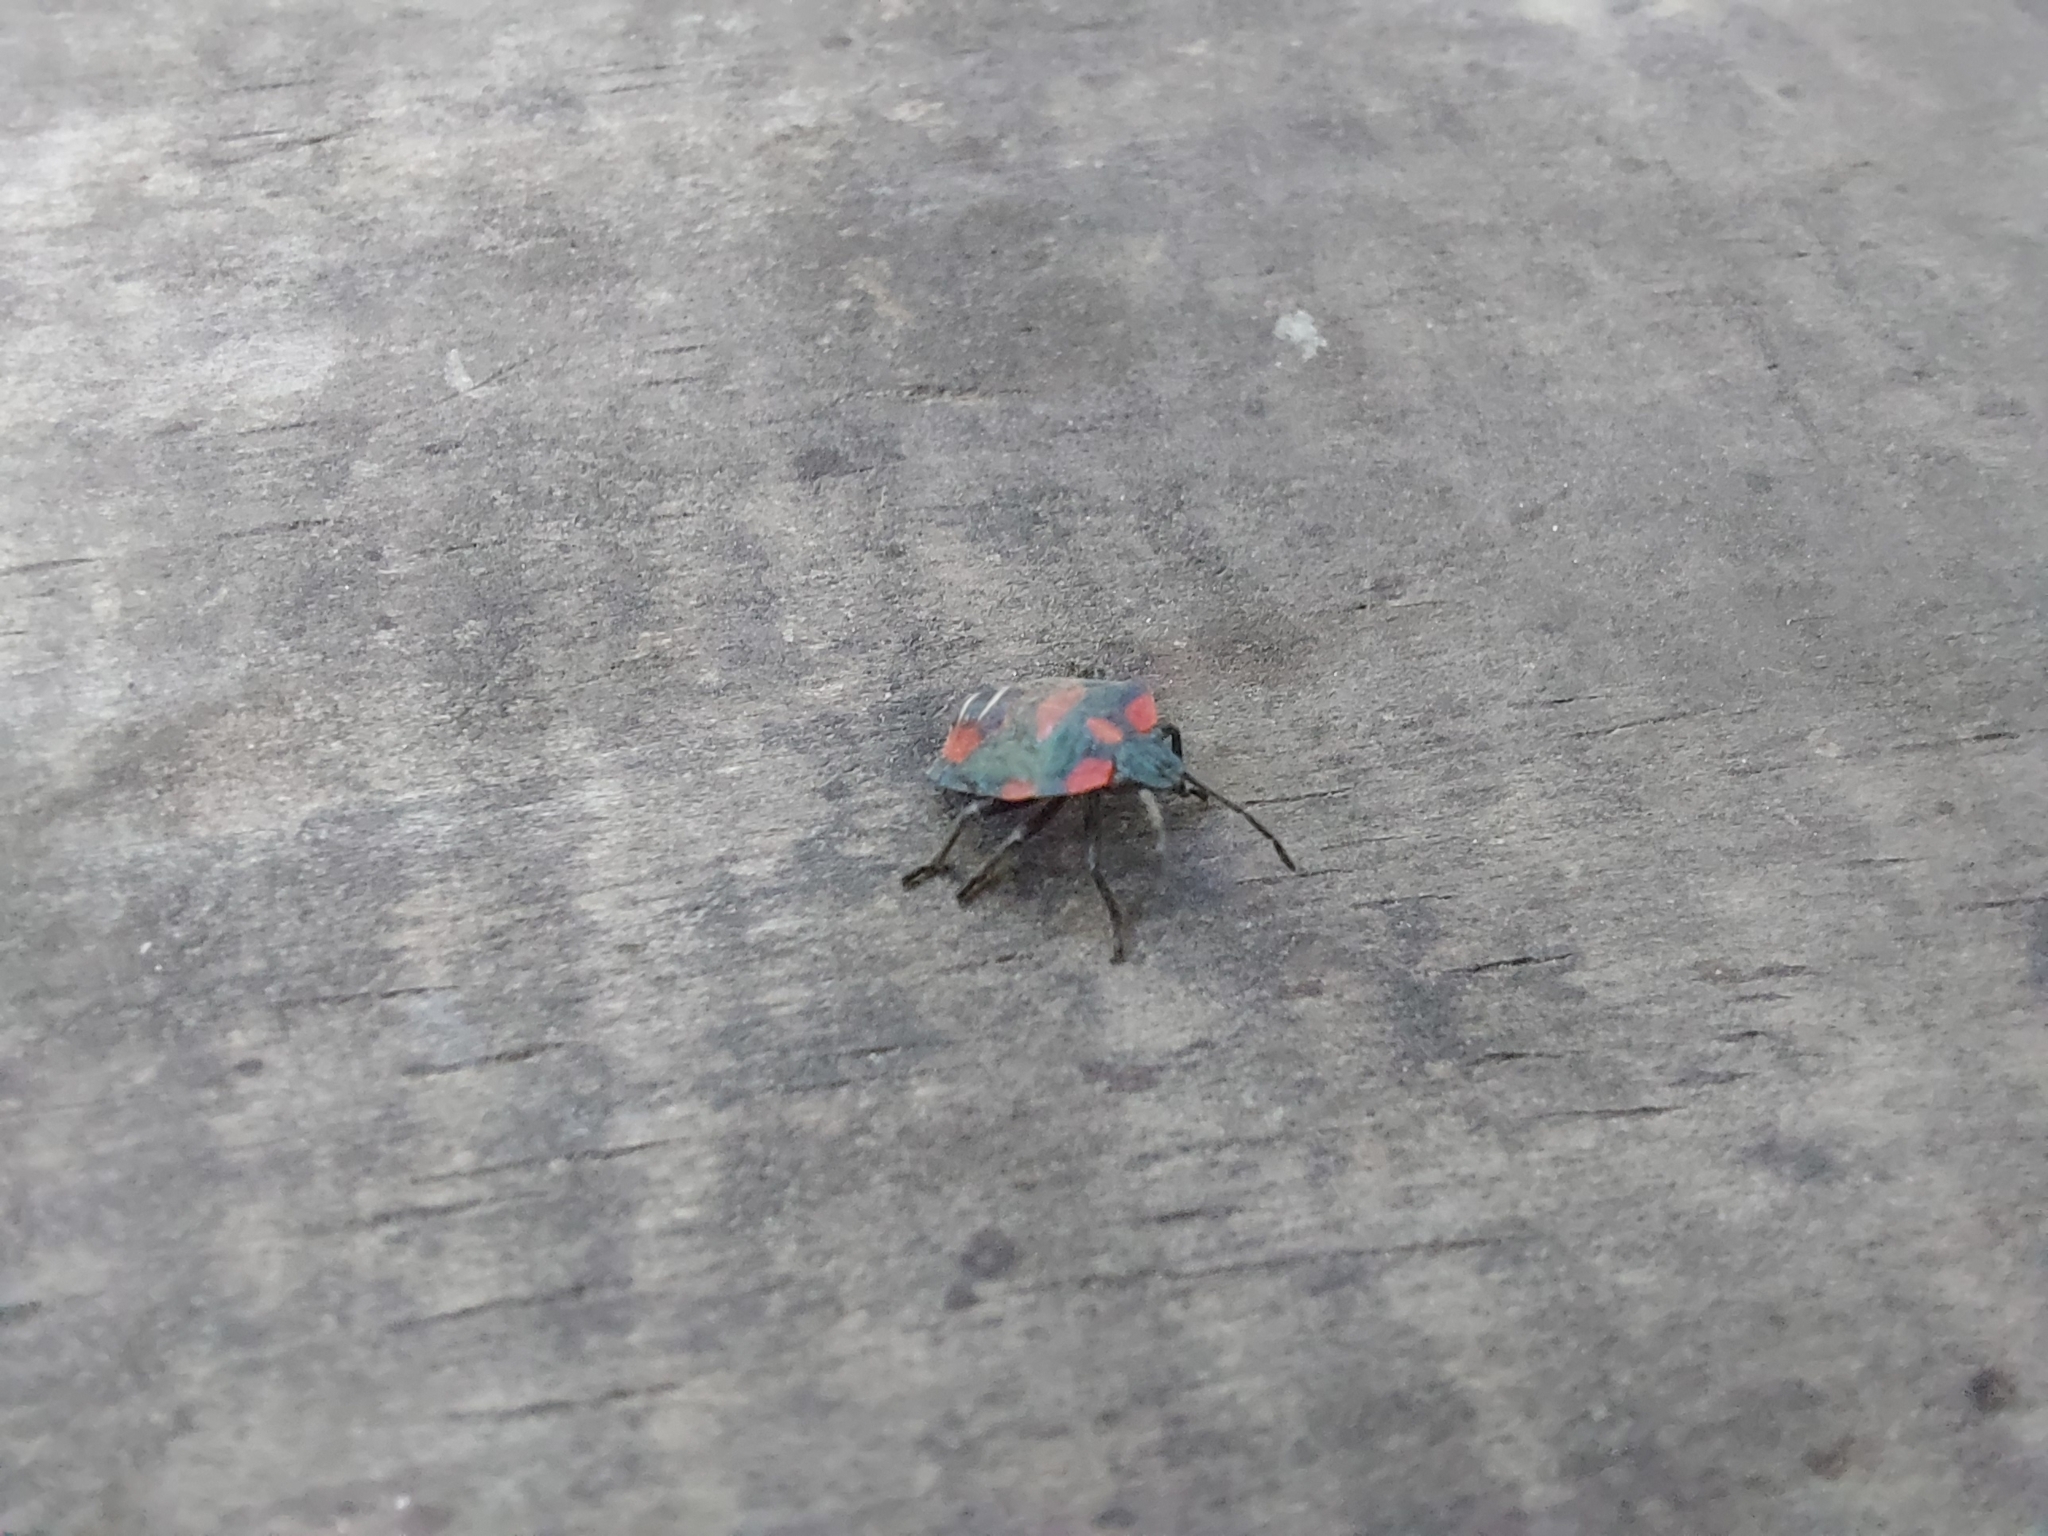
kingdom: Animalia
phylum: Arthropoda
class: Insecta
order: Hemiptera
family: Pentatomidae
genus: Tylospilus
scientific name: Tylospilus
